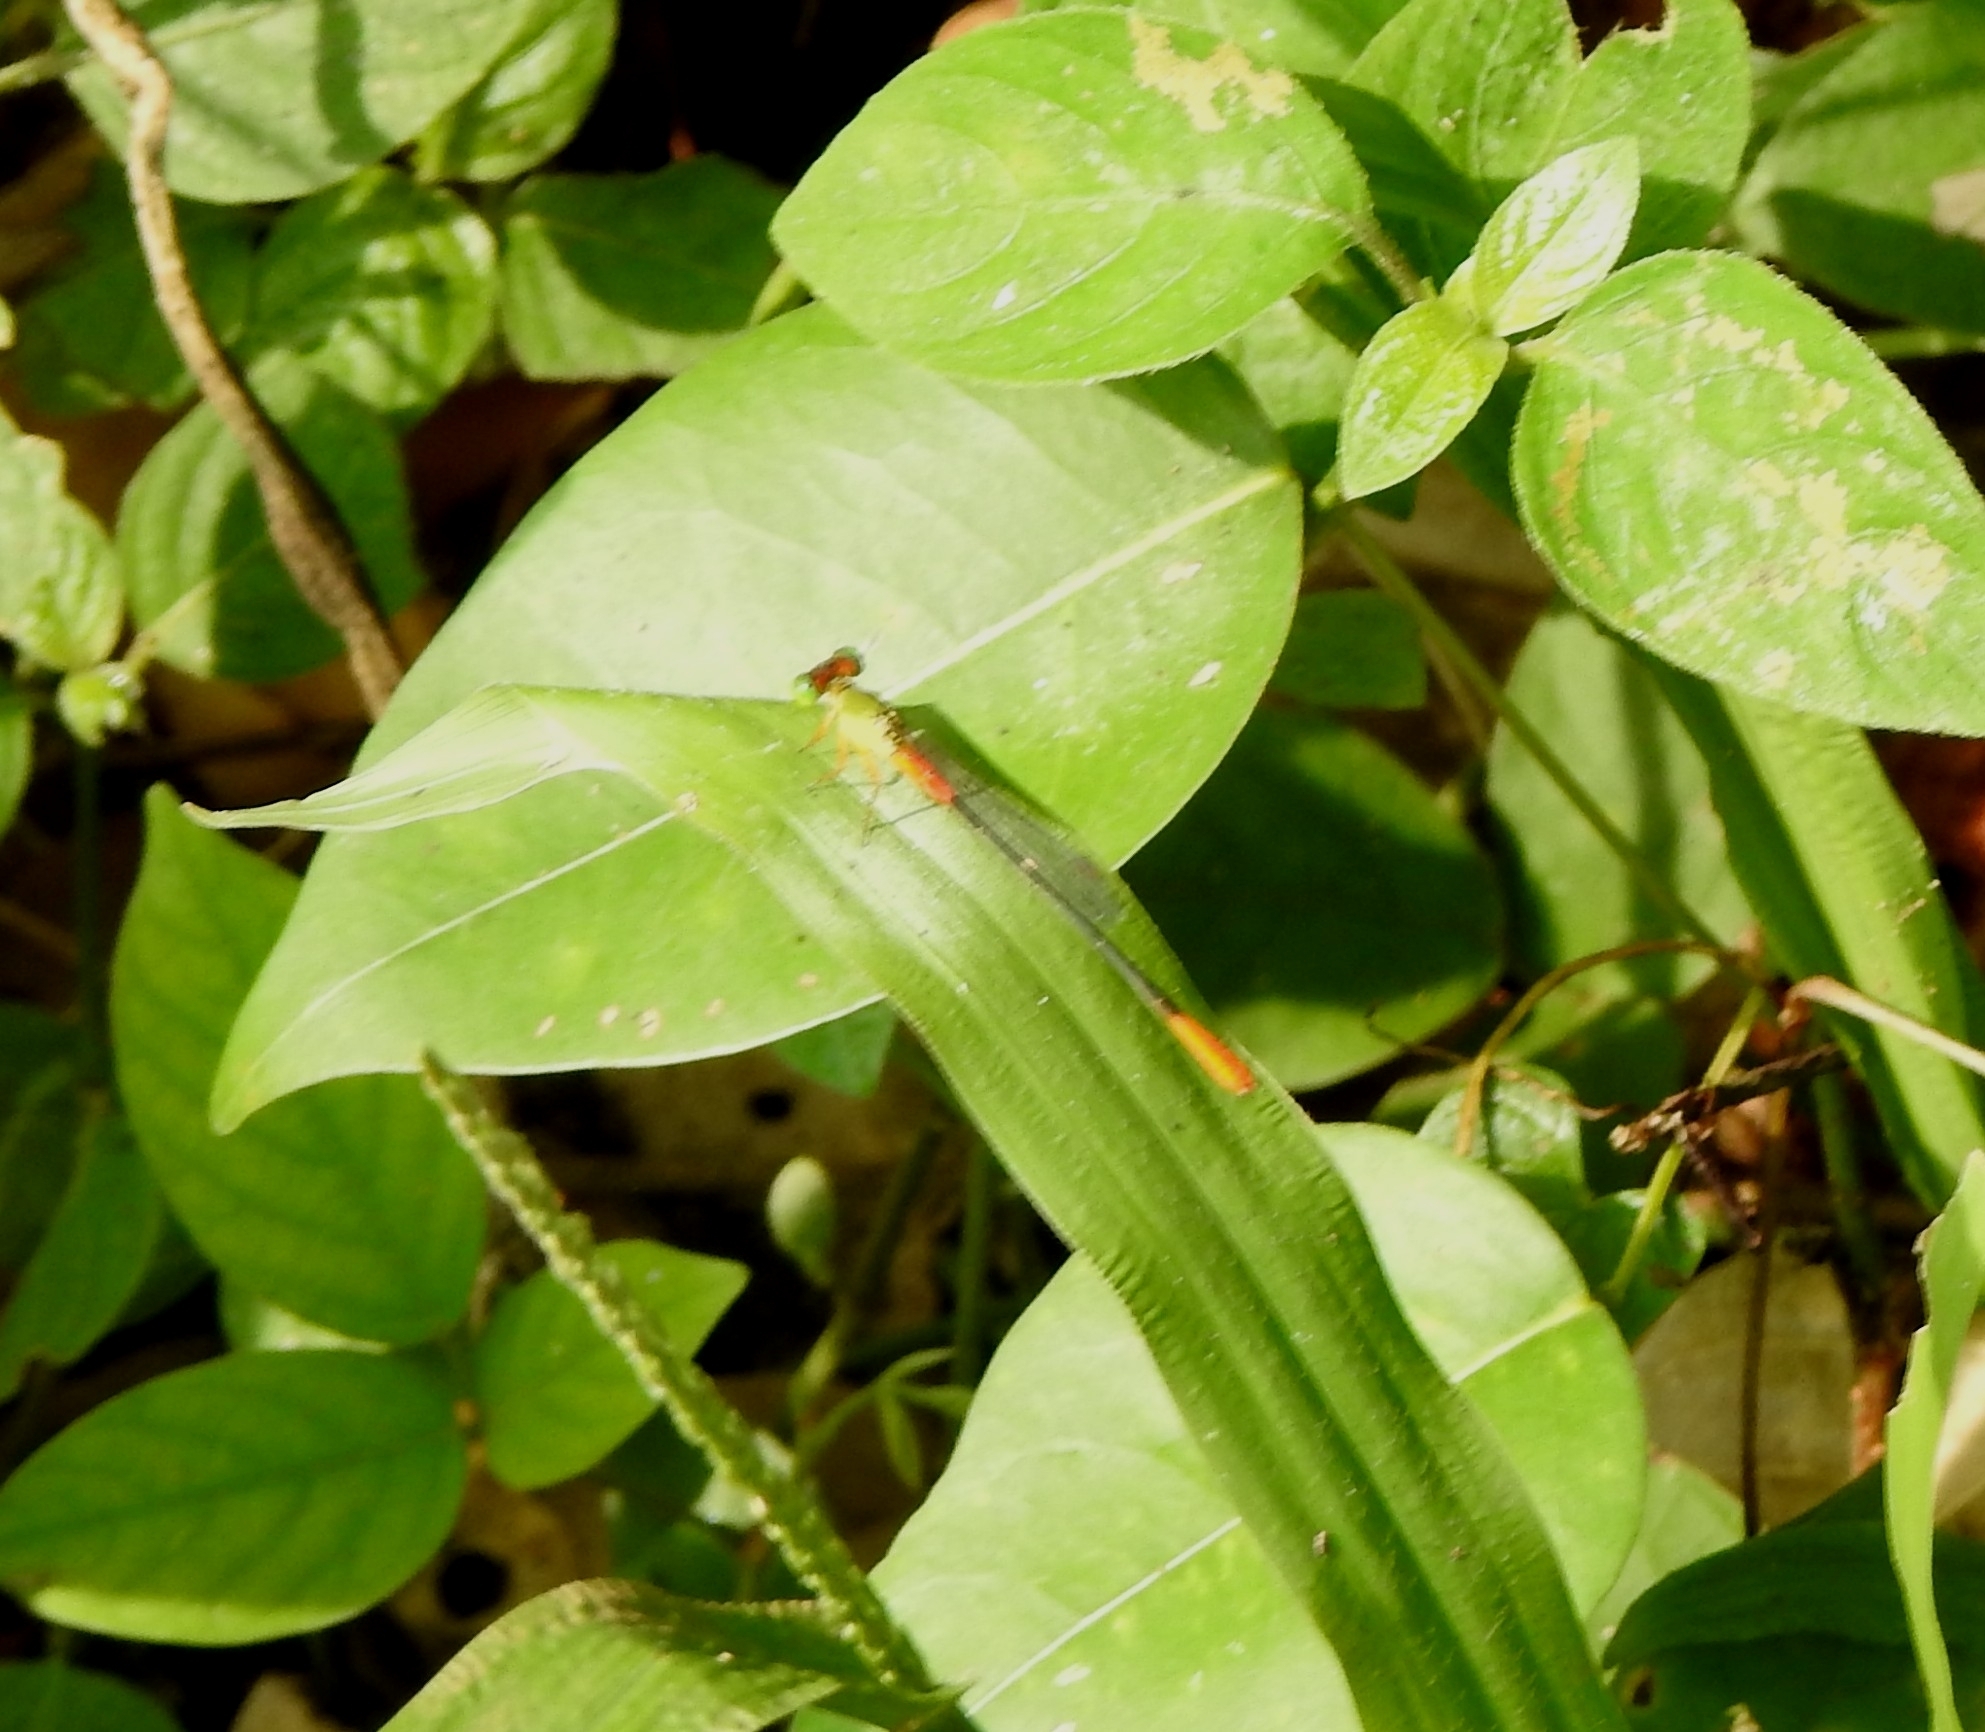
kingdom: Animalia
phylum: Arthropoda
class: Insecta
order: Odonata
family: Coenagrionidae
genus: Ceriagrion
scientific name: Ceriagrion cerinorubellum
